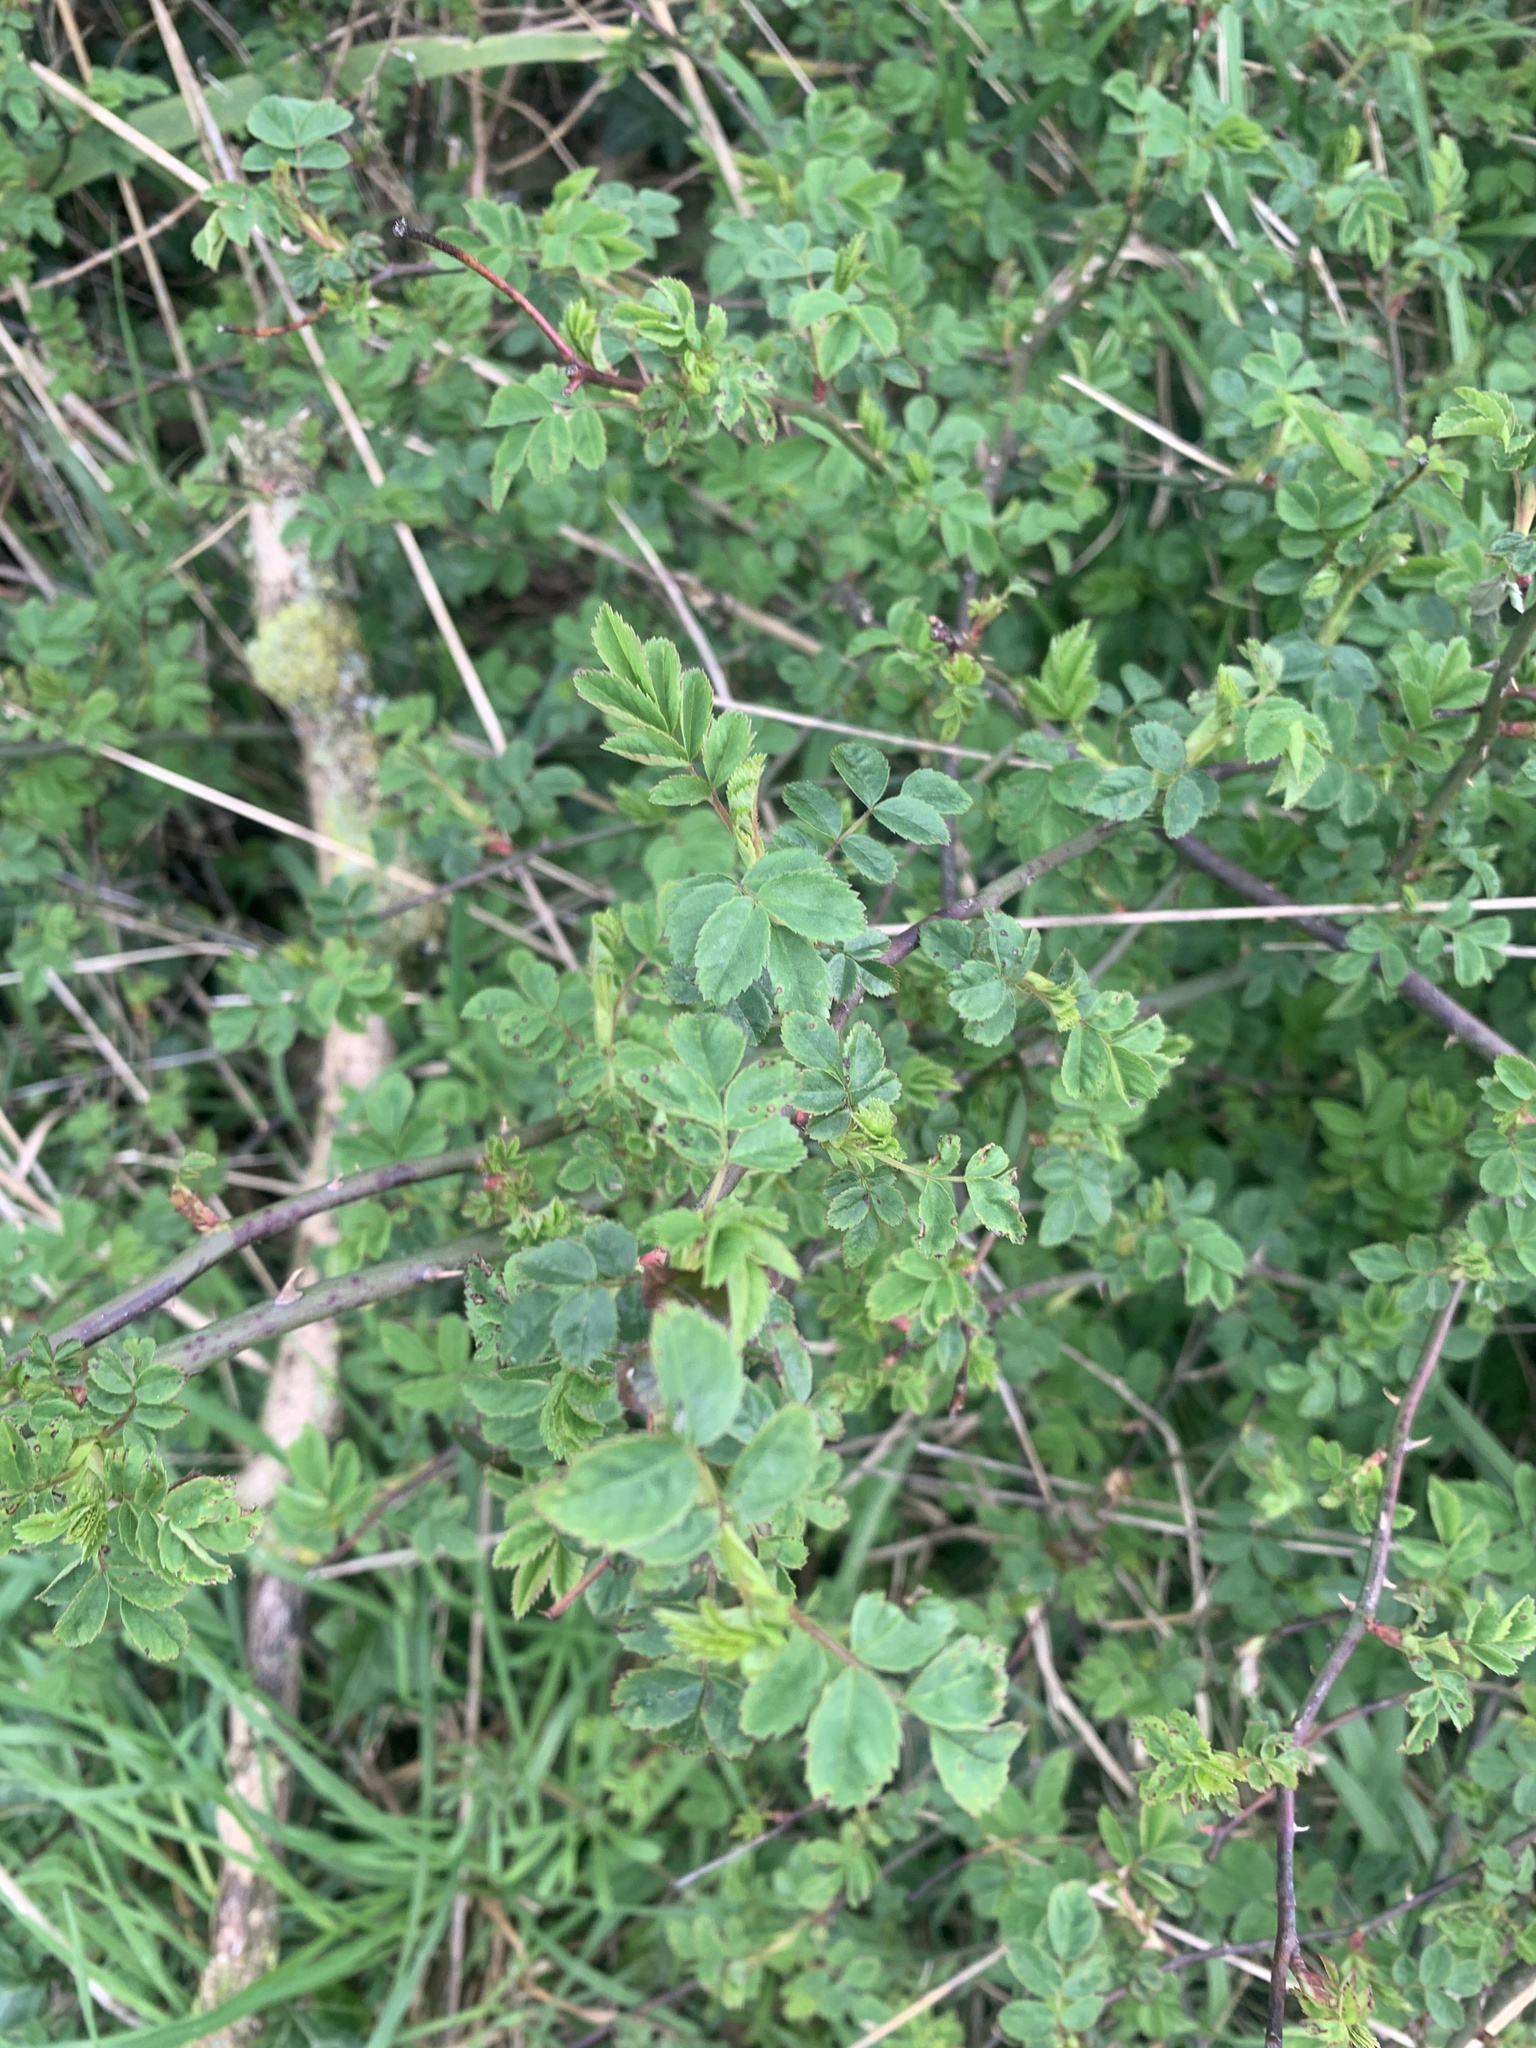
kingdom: Plantae
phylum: Tracheophyta
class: Magnoliopsida
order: Rosales
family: Rosaceae
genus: Rosa
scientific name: Rosa canina
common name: Dog rose
